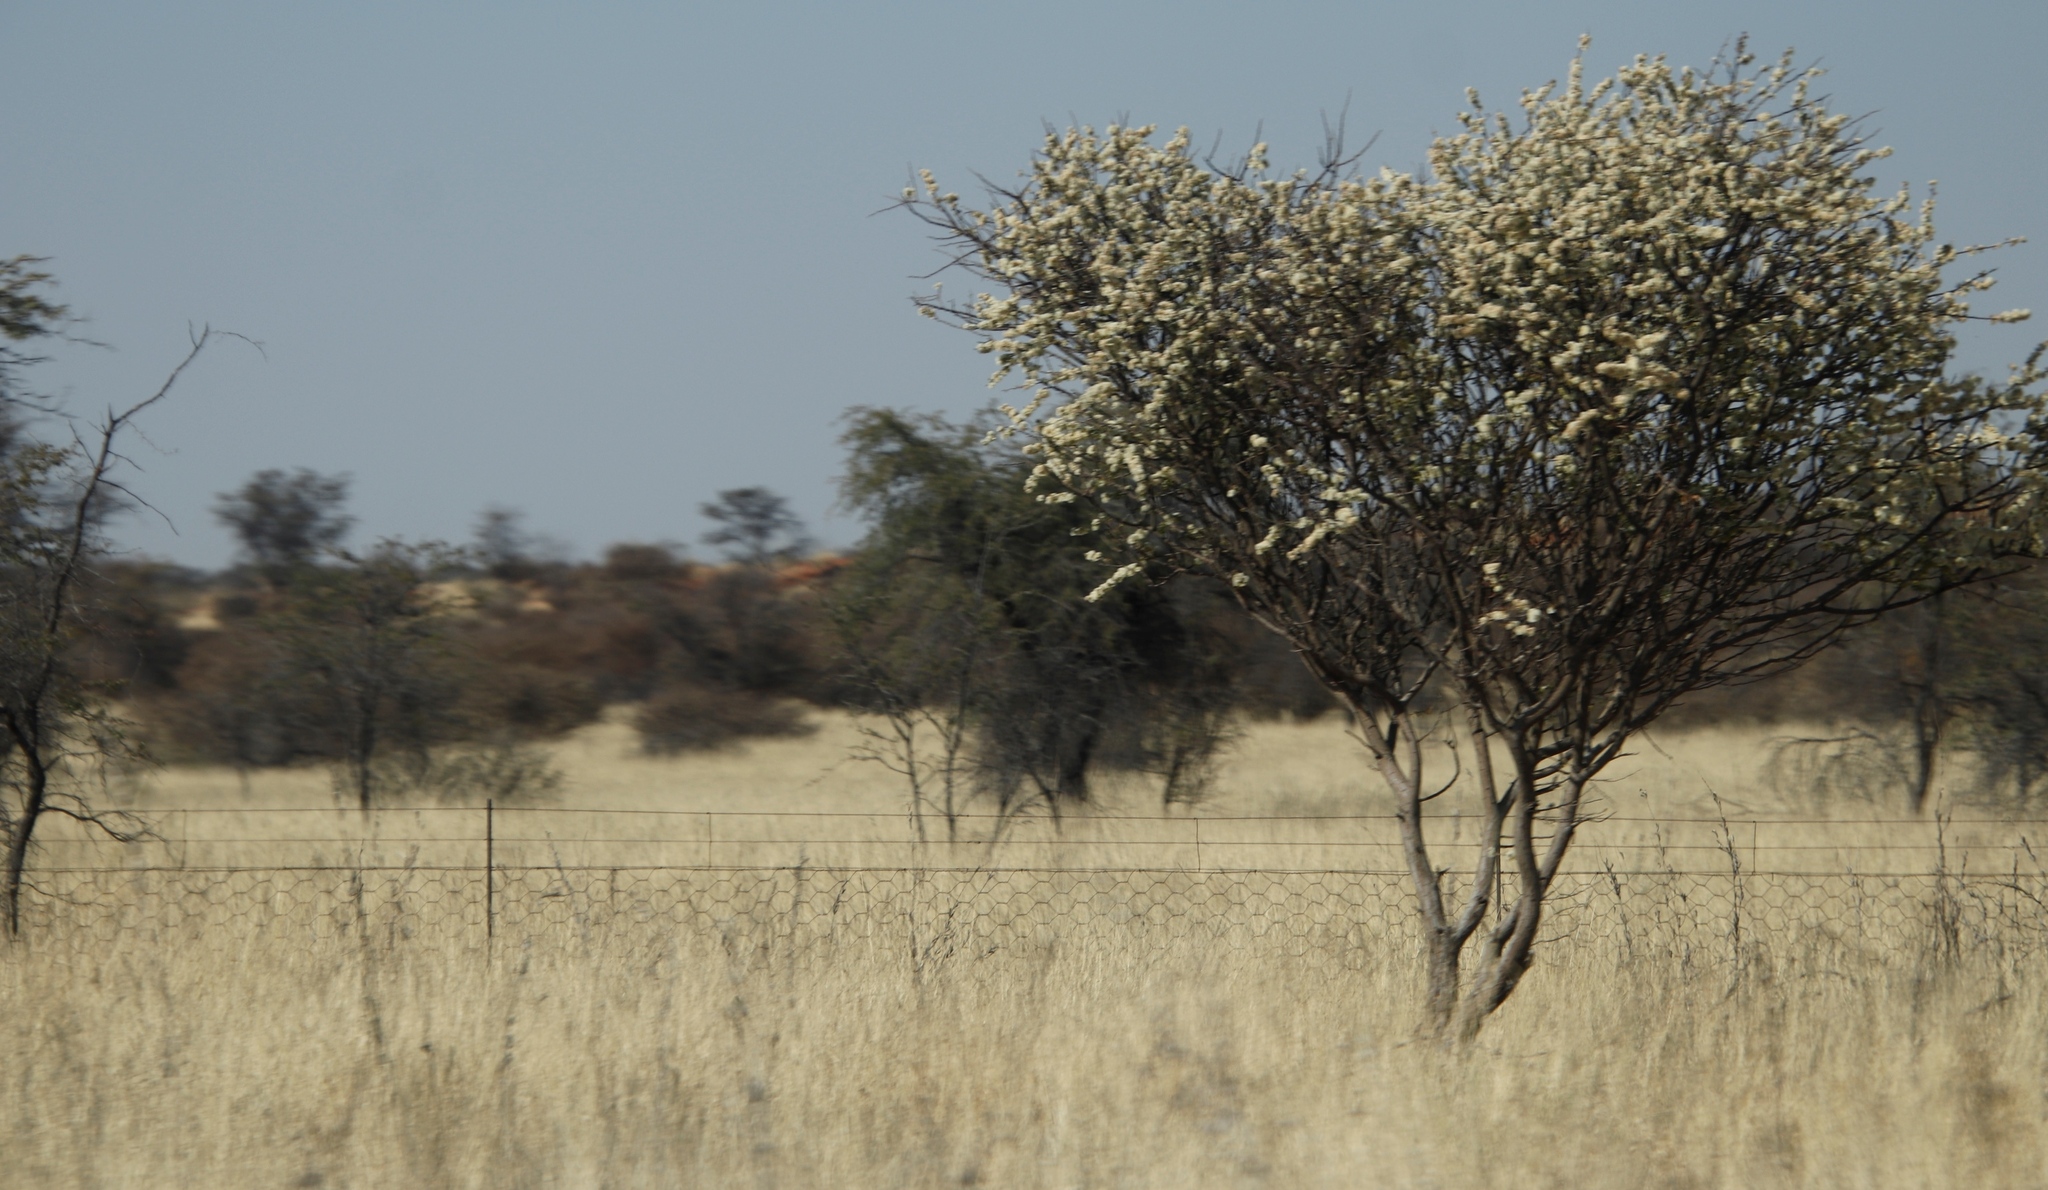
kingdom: Plantae
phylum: Tracheophyta
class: Magnoliopsida
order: Fabales
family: Fabaceae
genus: Senegalia
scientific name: Senegalia mellifera
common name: Hookthorn
